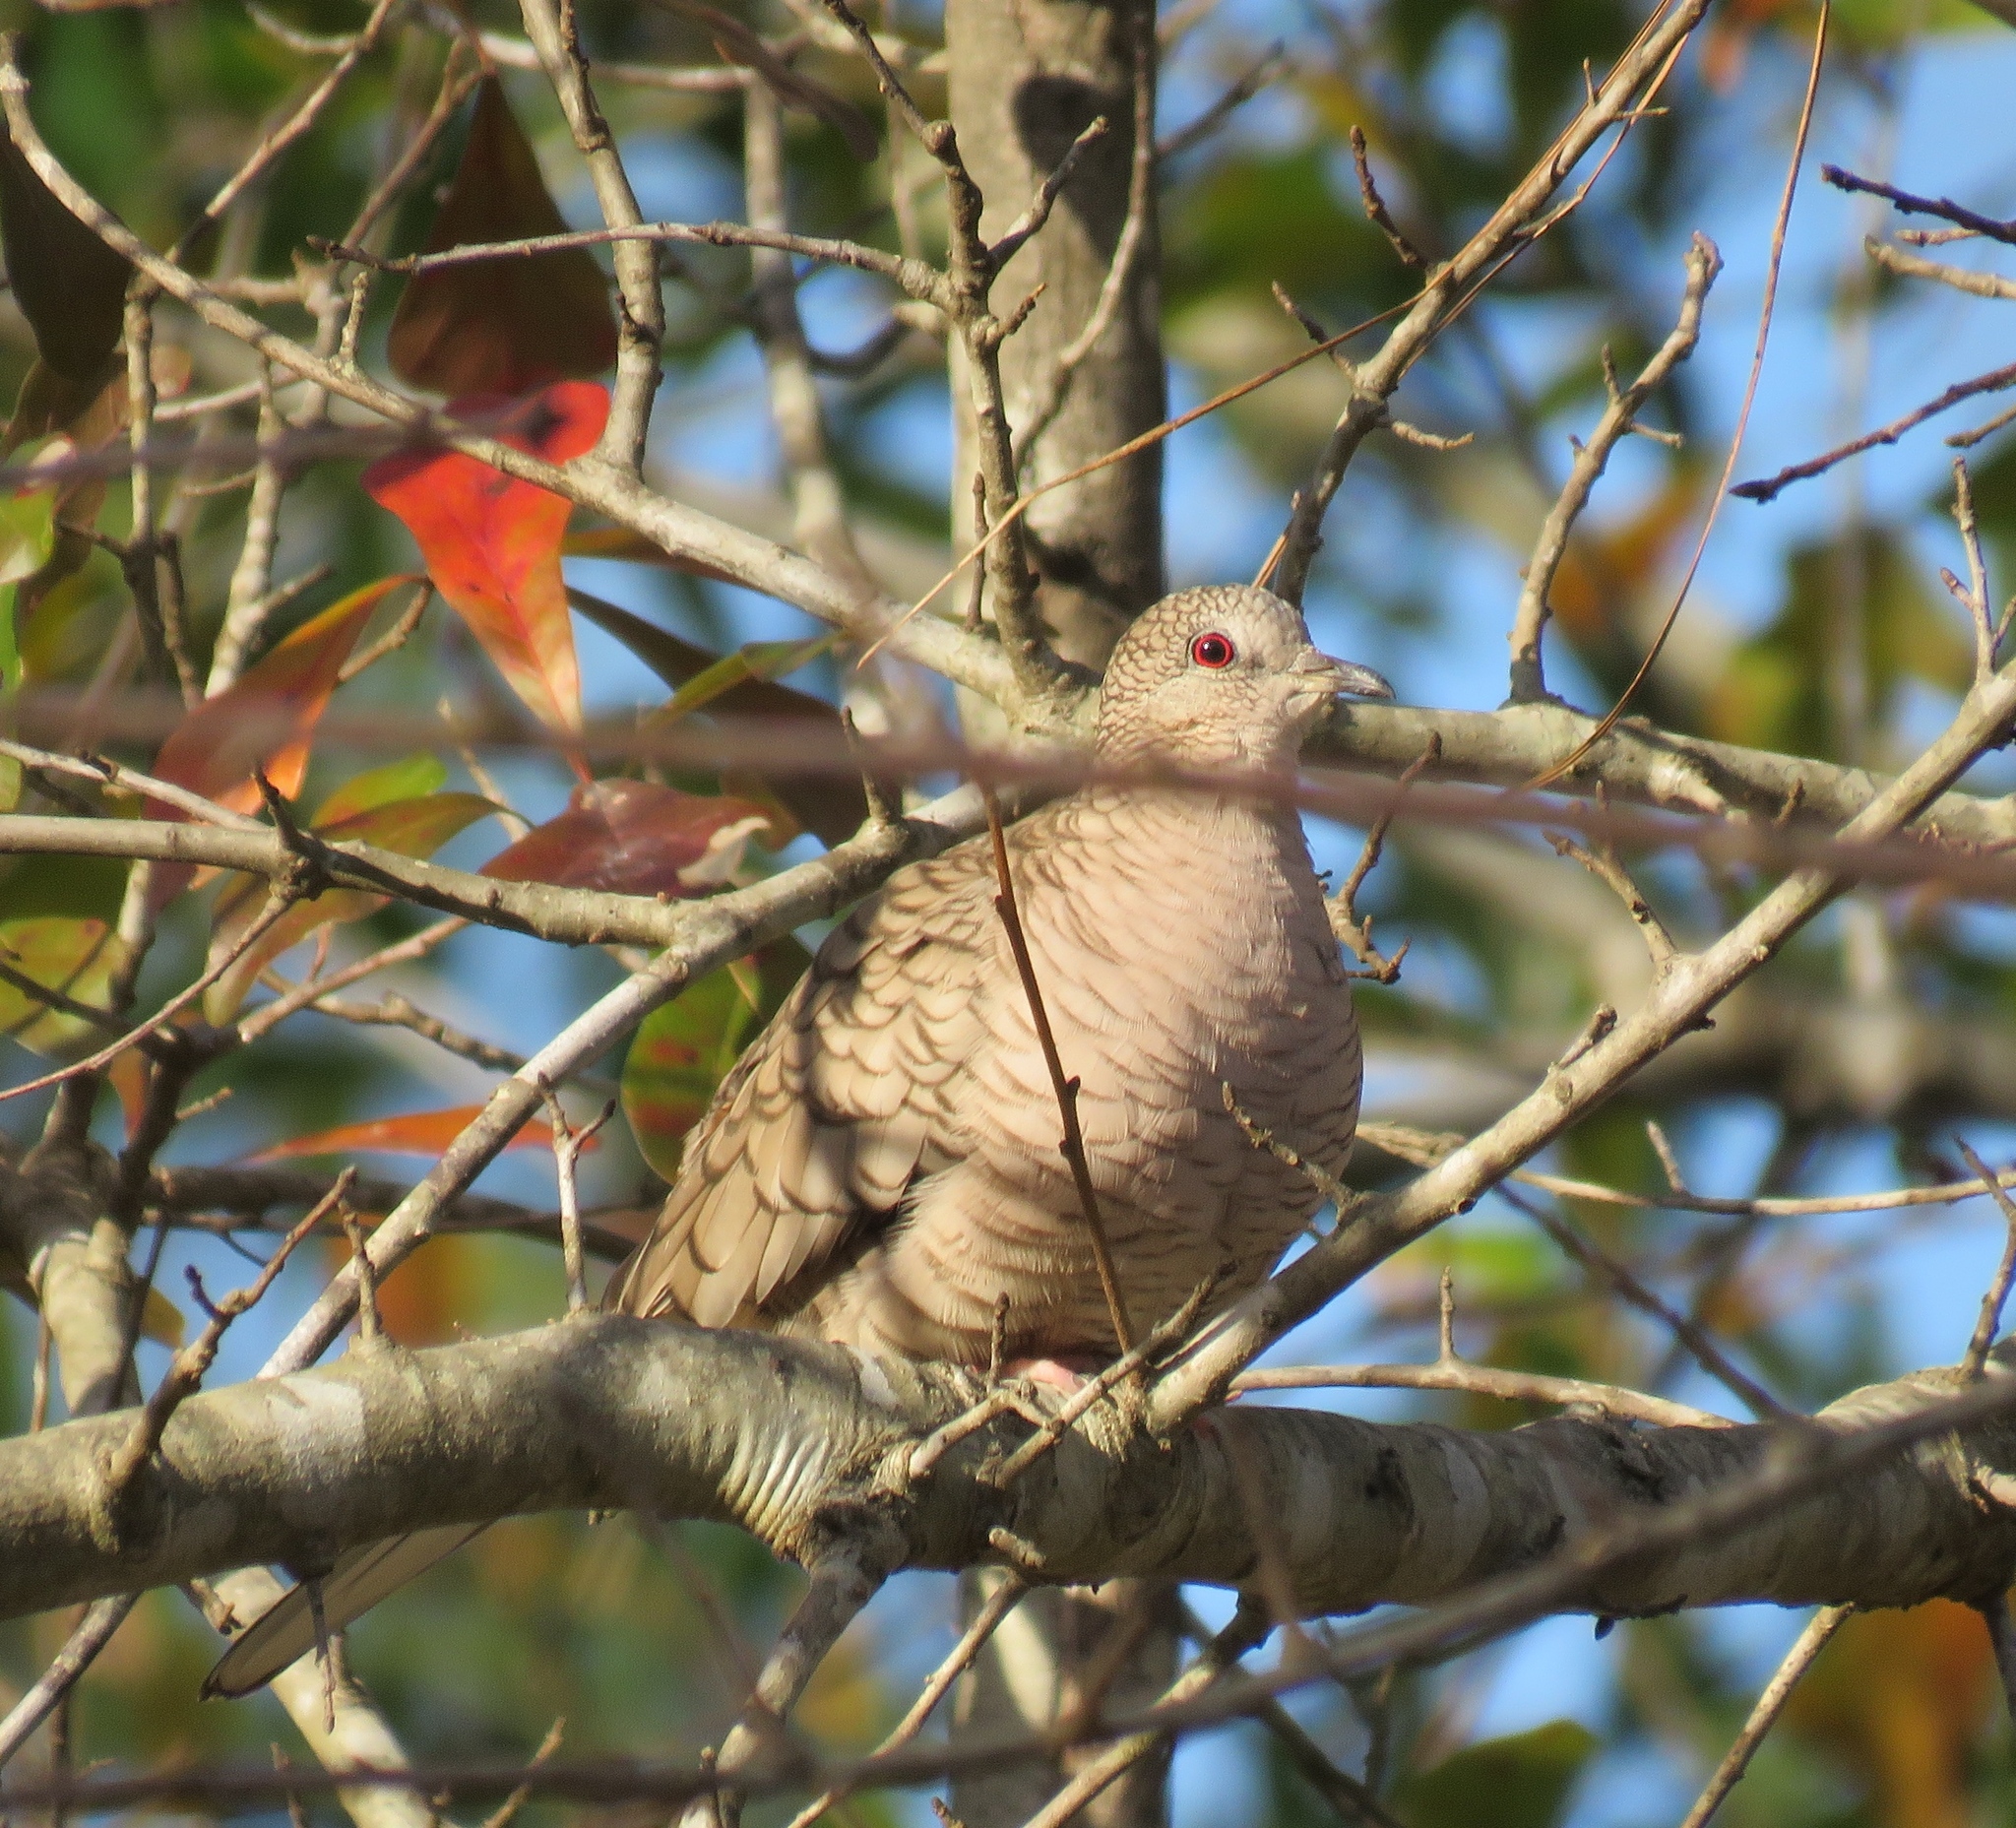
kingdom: Animalia
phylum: Chordata
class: Aves
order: Columbiformes
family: Columbidae
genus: Columbina
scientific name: Columbina inca
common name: Inca dove
